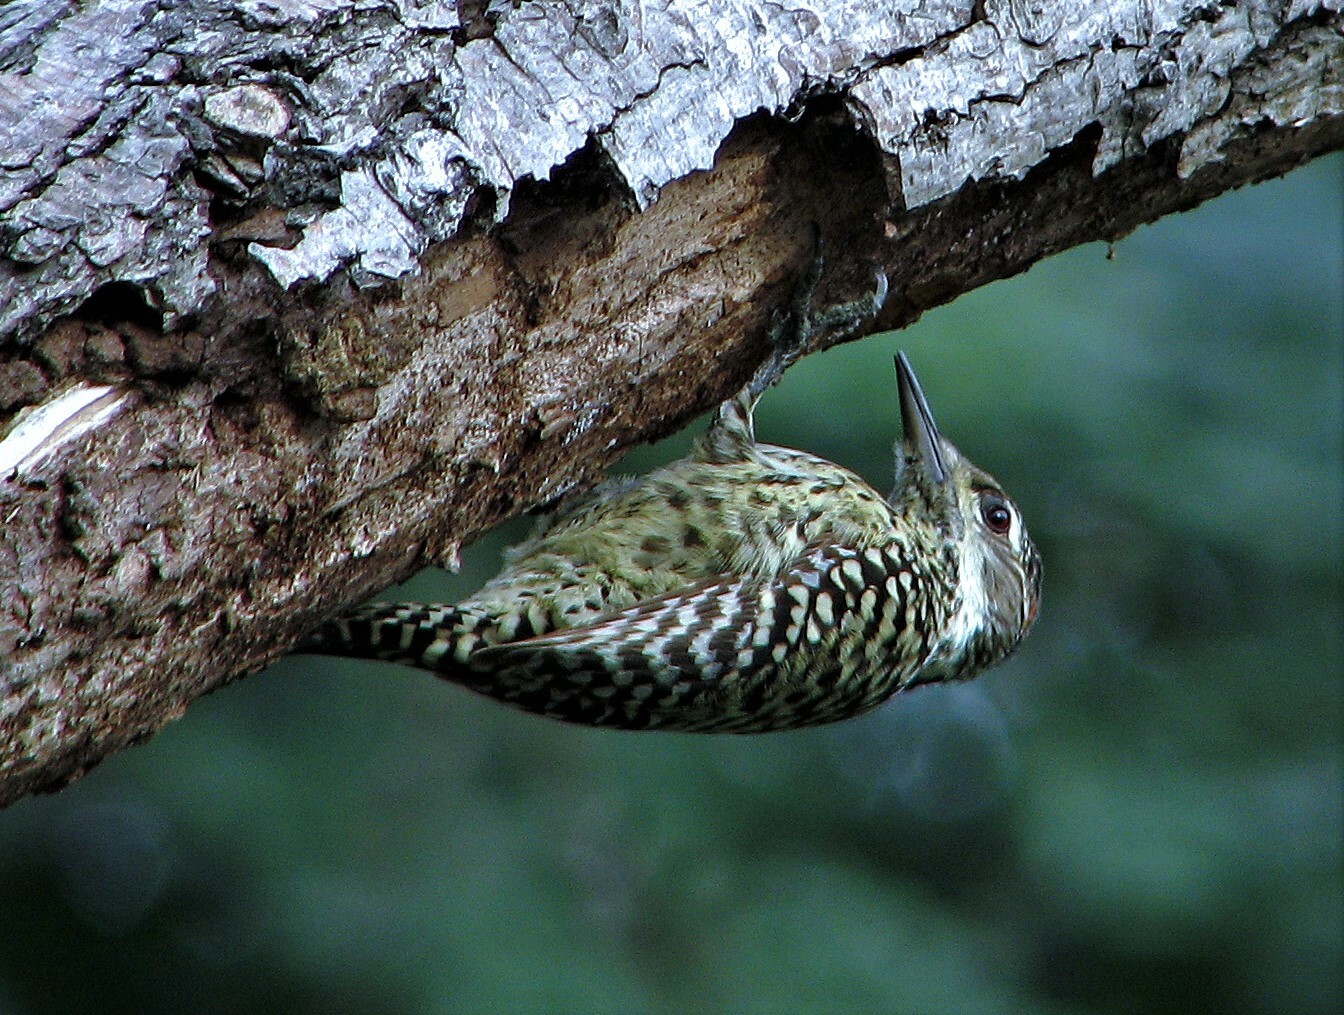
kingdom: Animalia
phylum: Chordata
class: Aves
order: Piciformes
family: Picidae
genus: Veniliornis
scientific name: Veniliornis mixtus
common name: Checkered woodpecker
